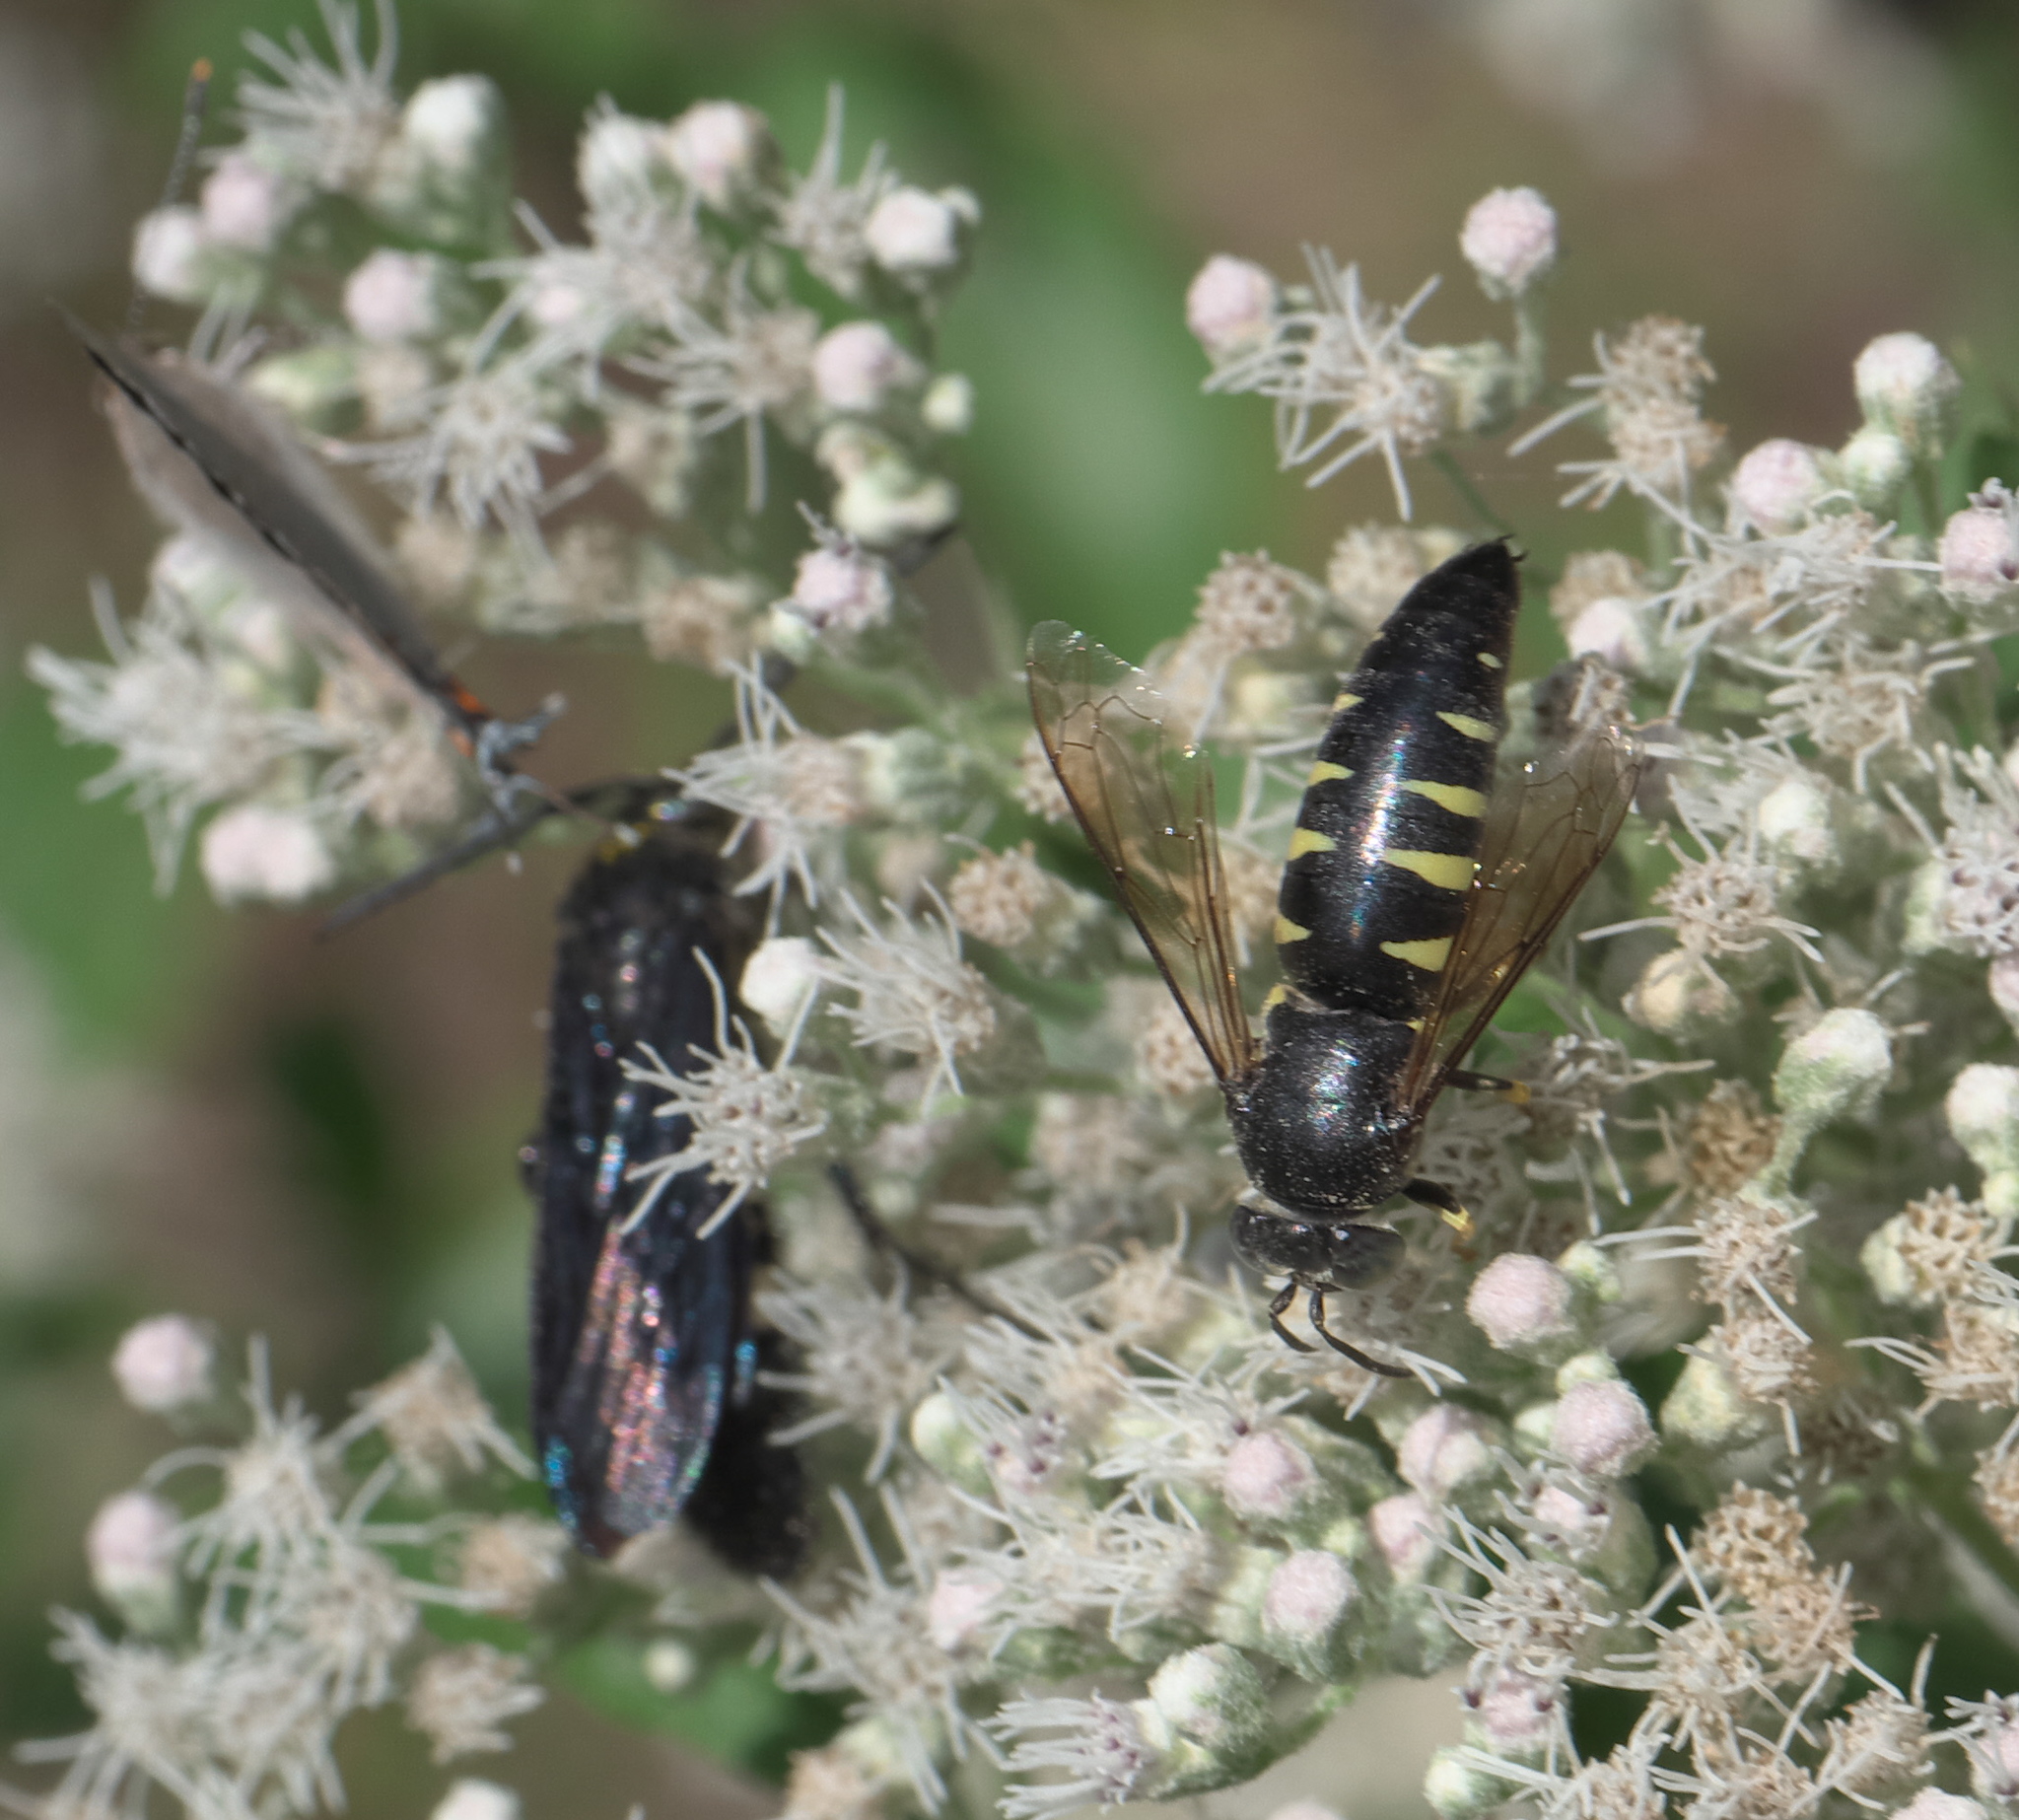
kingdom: Animalia
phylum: Arthropoda
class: Insecta
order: Hymenoptera
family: Crabronidae
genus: Bicyrtes
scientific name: Bicyrtes quadrifasciatus
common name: Four-banded stink bug hunter wasp
